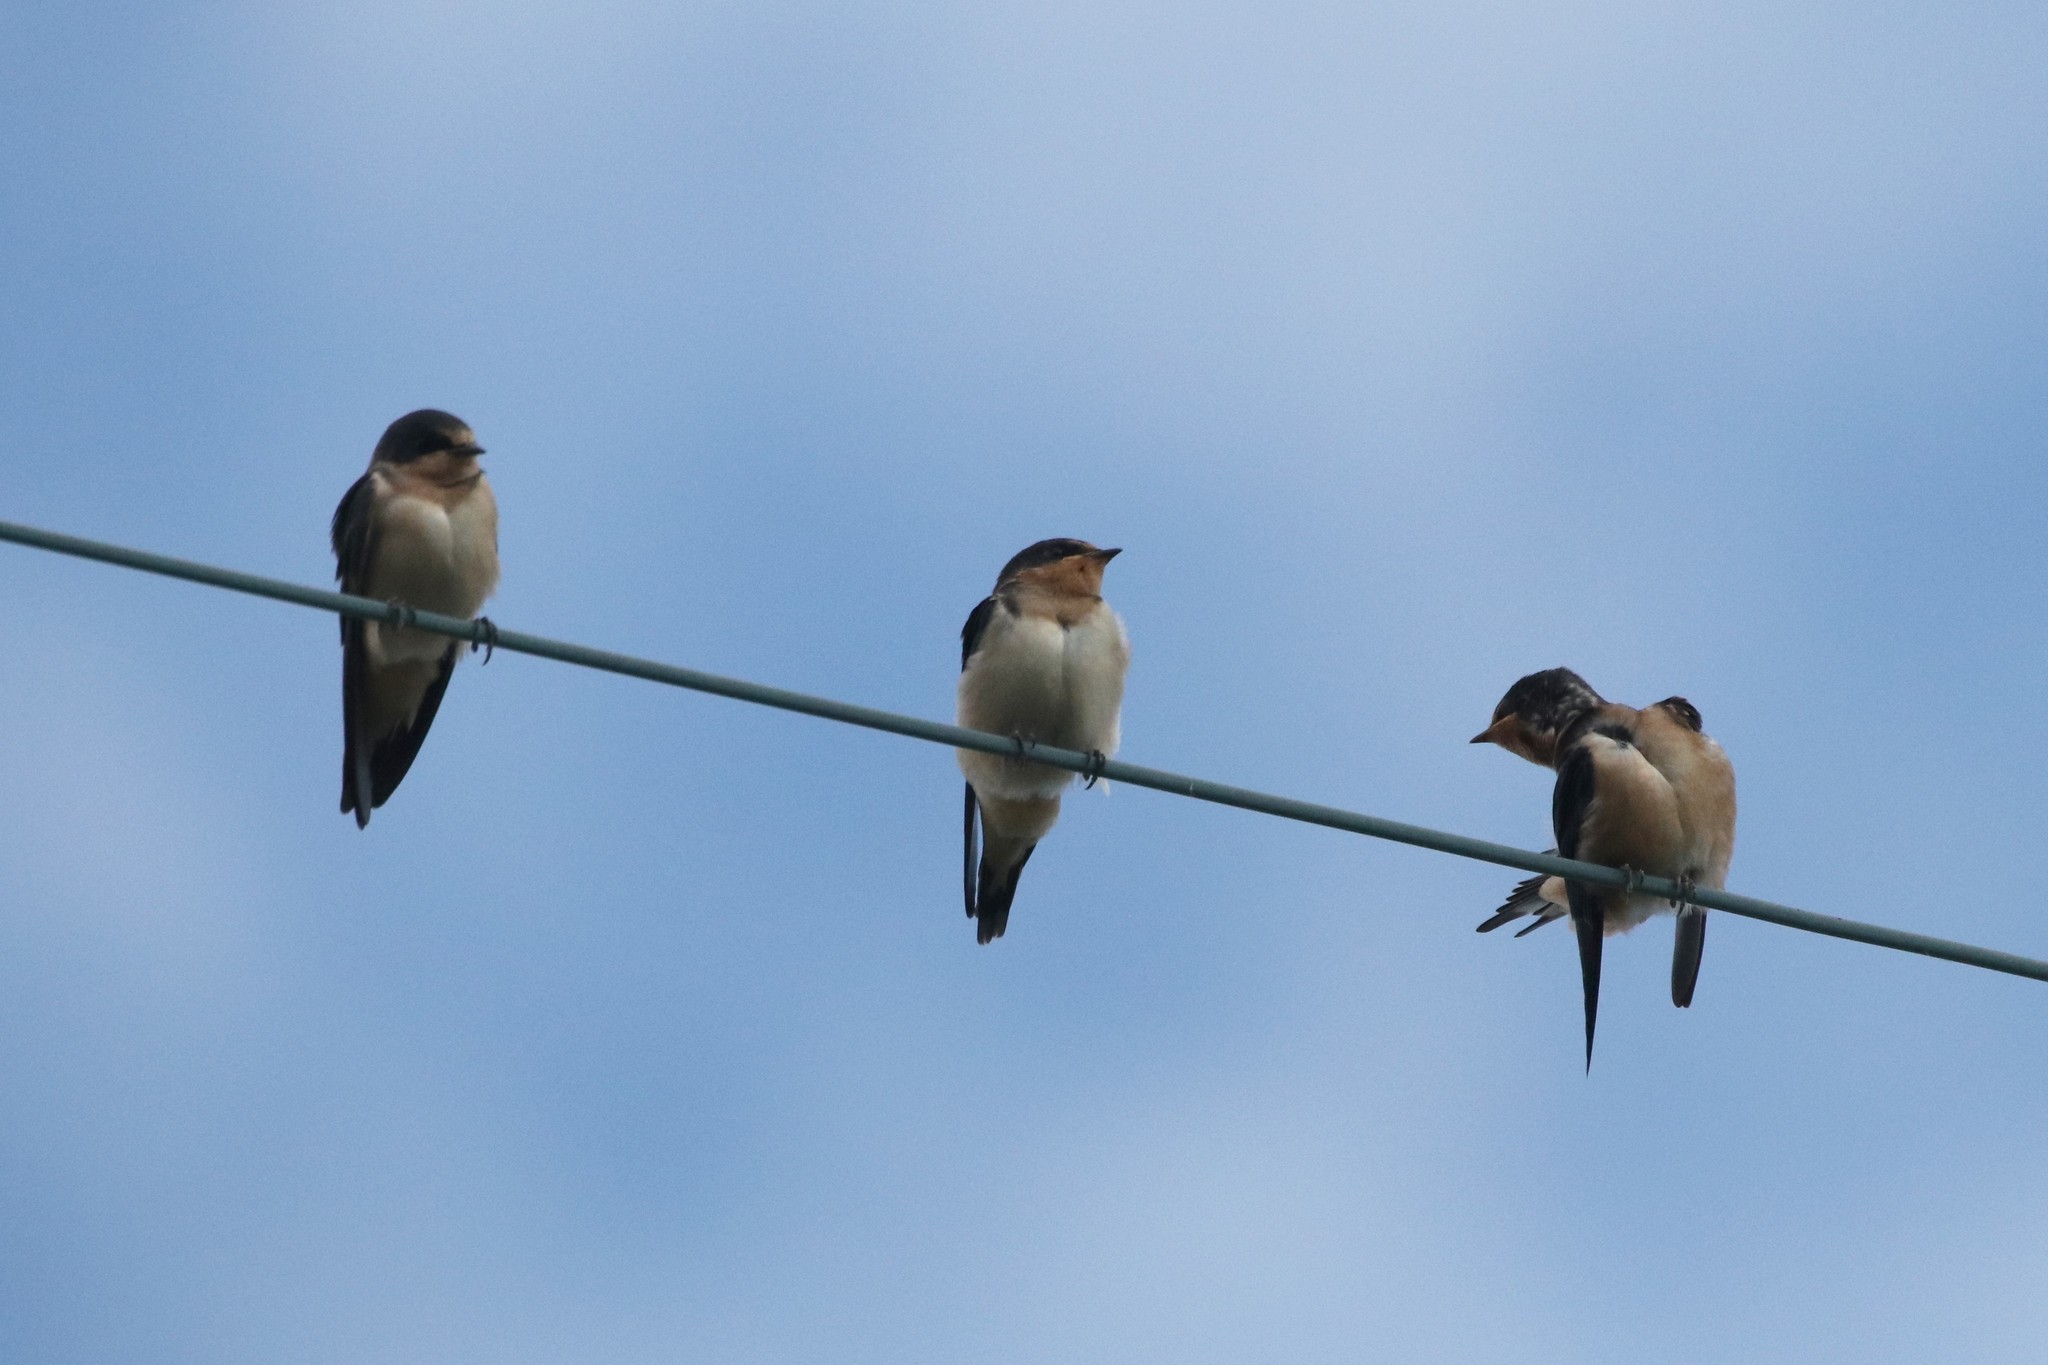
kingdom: Animalia
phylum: Chordata
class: Aves
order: Passeriformes
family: Hirundinidae
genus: Hirundo
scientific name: Hirundo rustica
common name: Barn swallow
